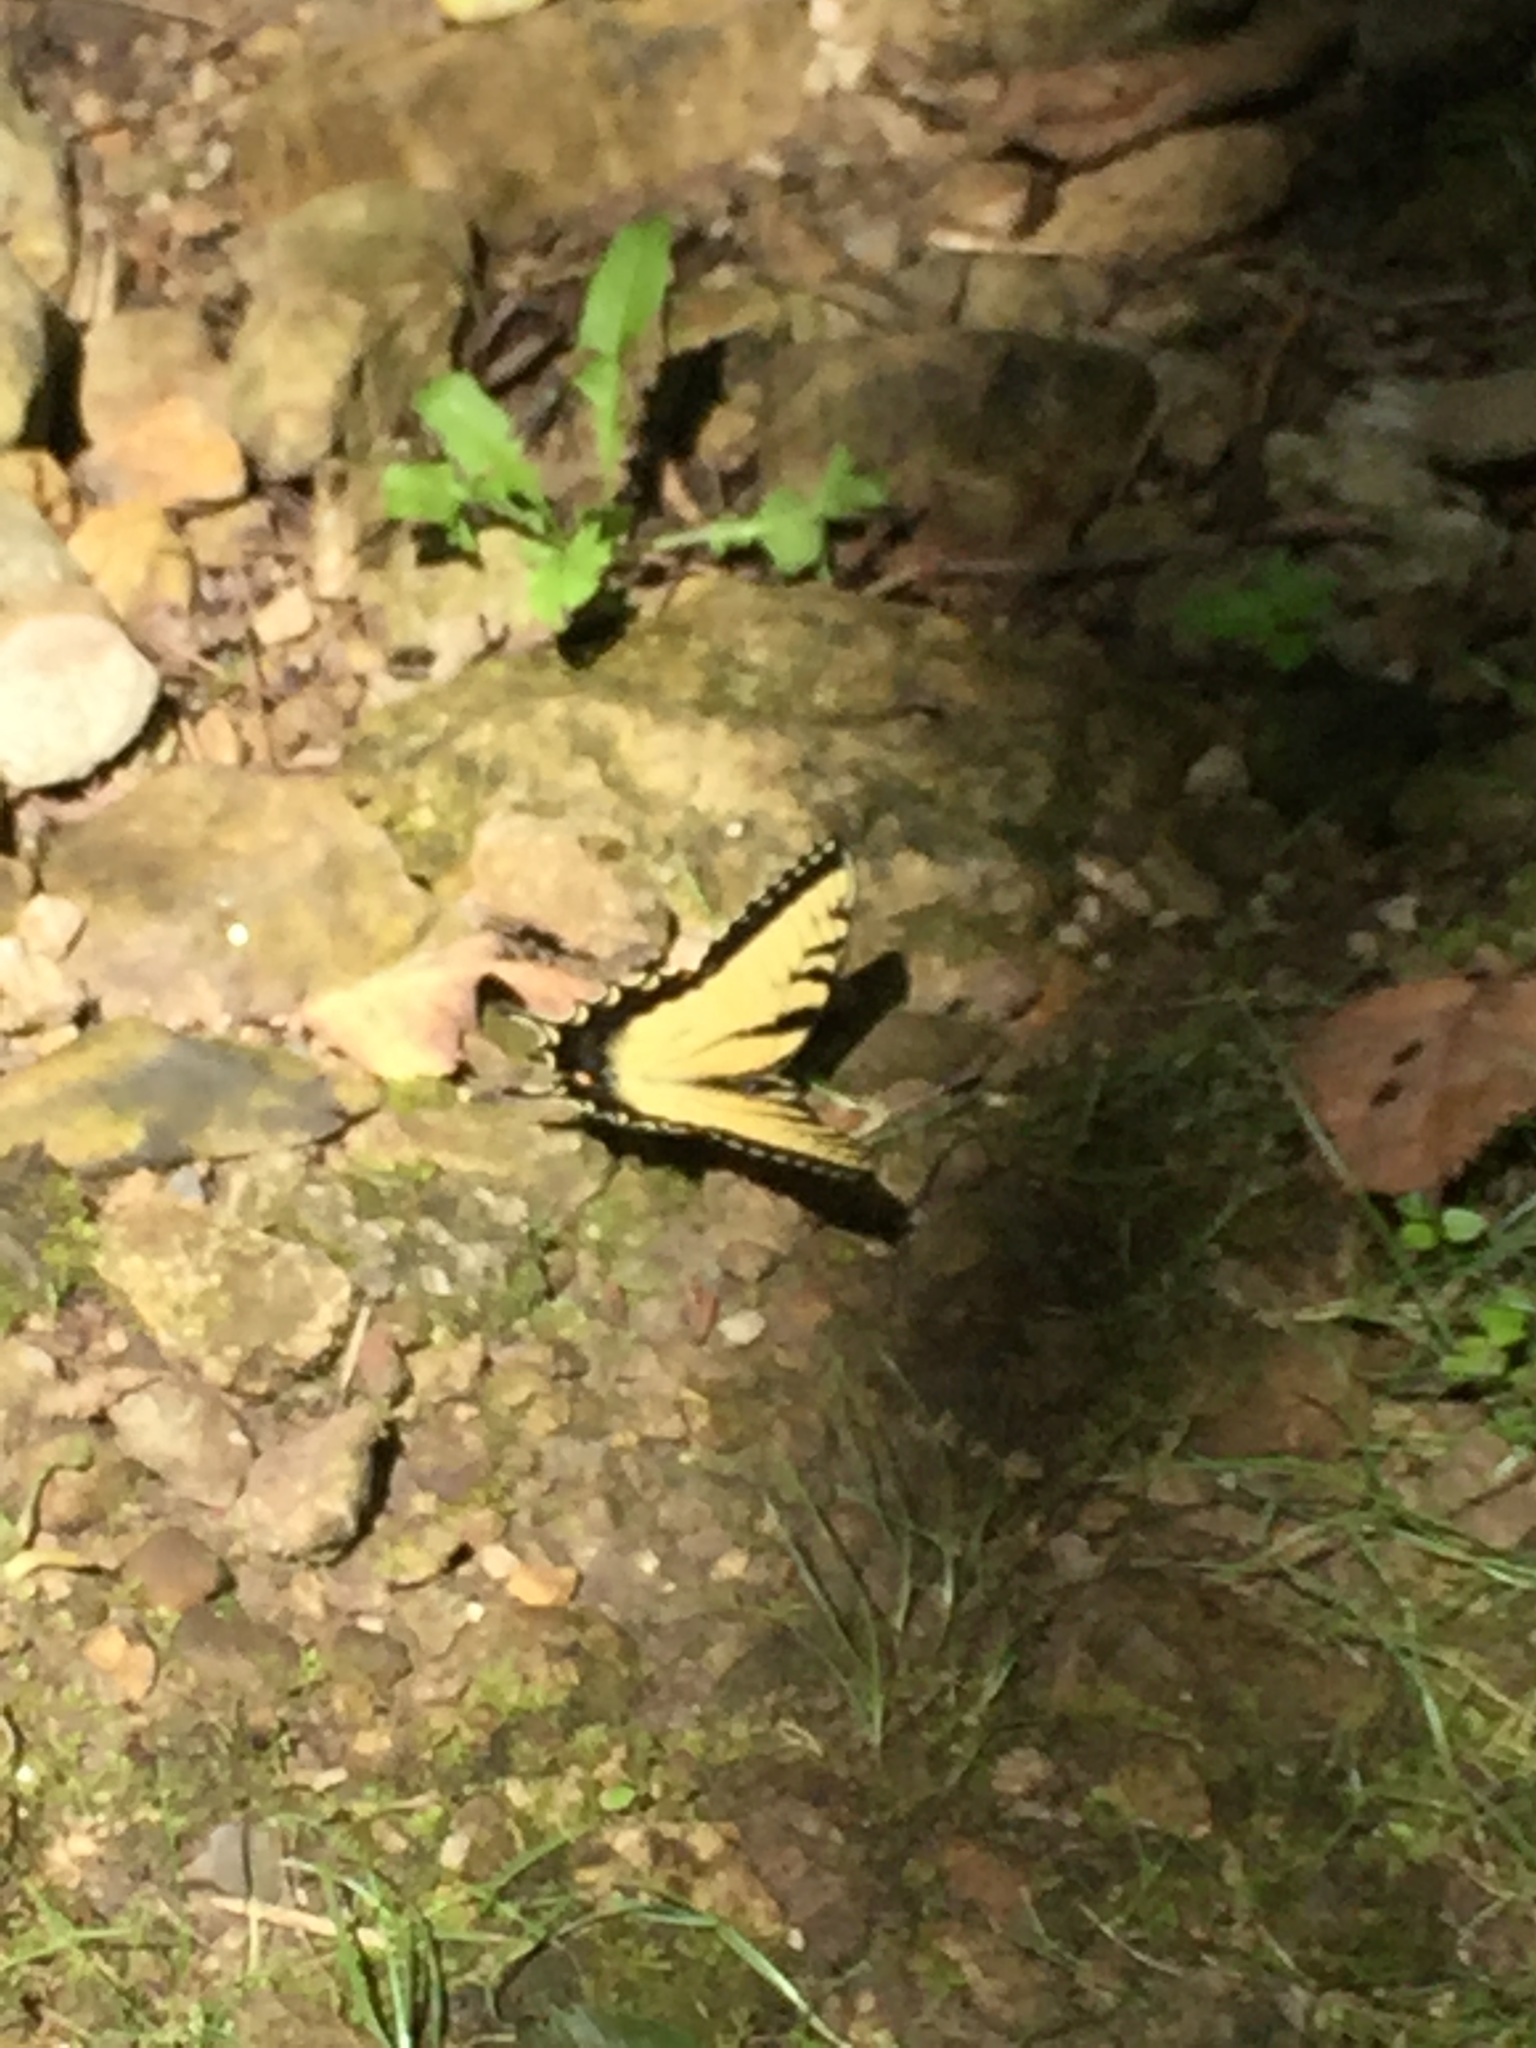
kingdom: Animalia
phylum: Arthropoda
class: Insecta
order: Lepidoptera
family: Papilionidae
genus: Papilio
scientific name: Papilio glaucus
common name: Tiger swallowtail
